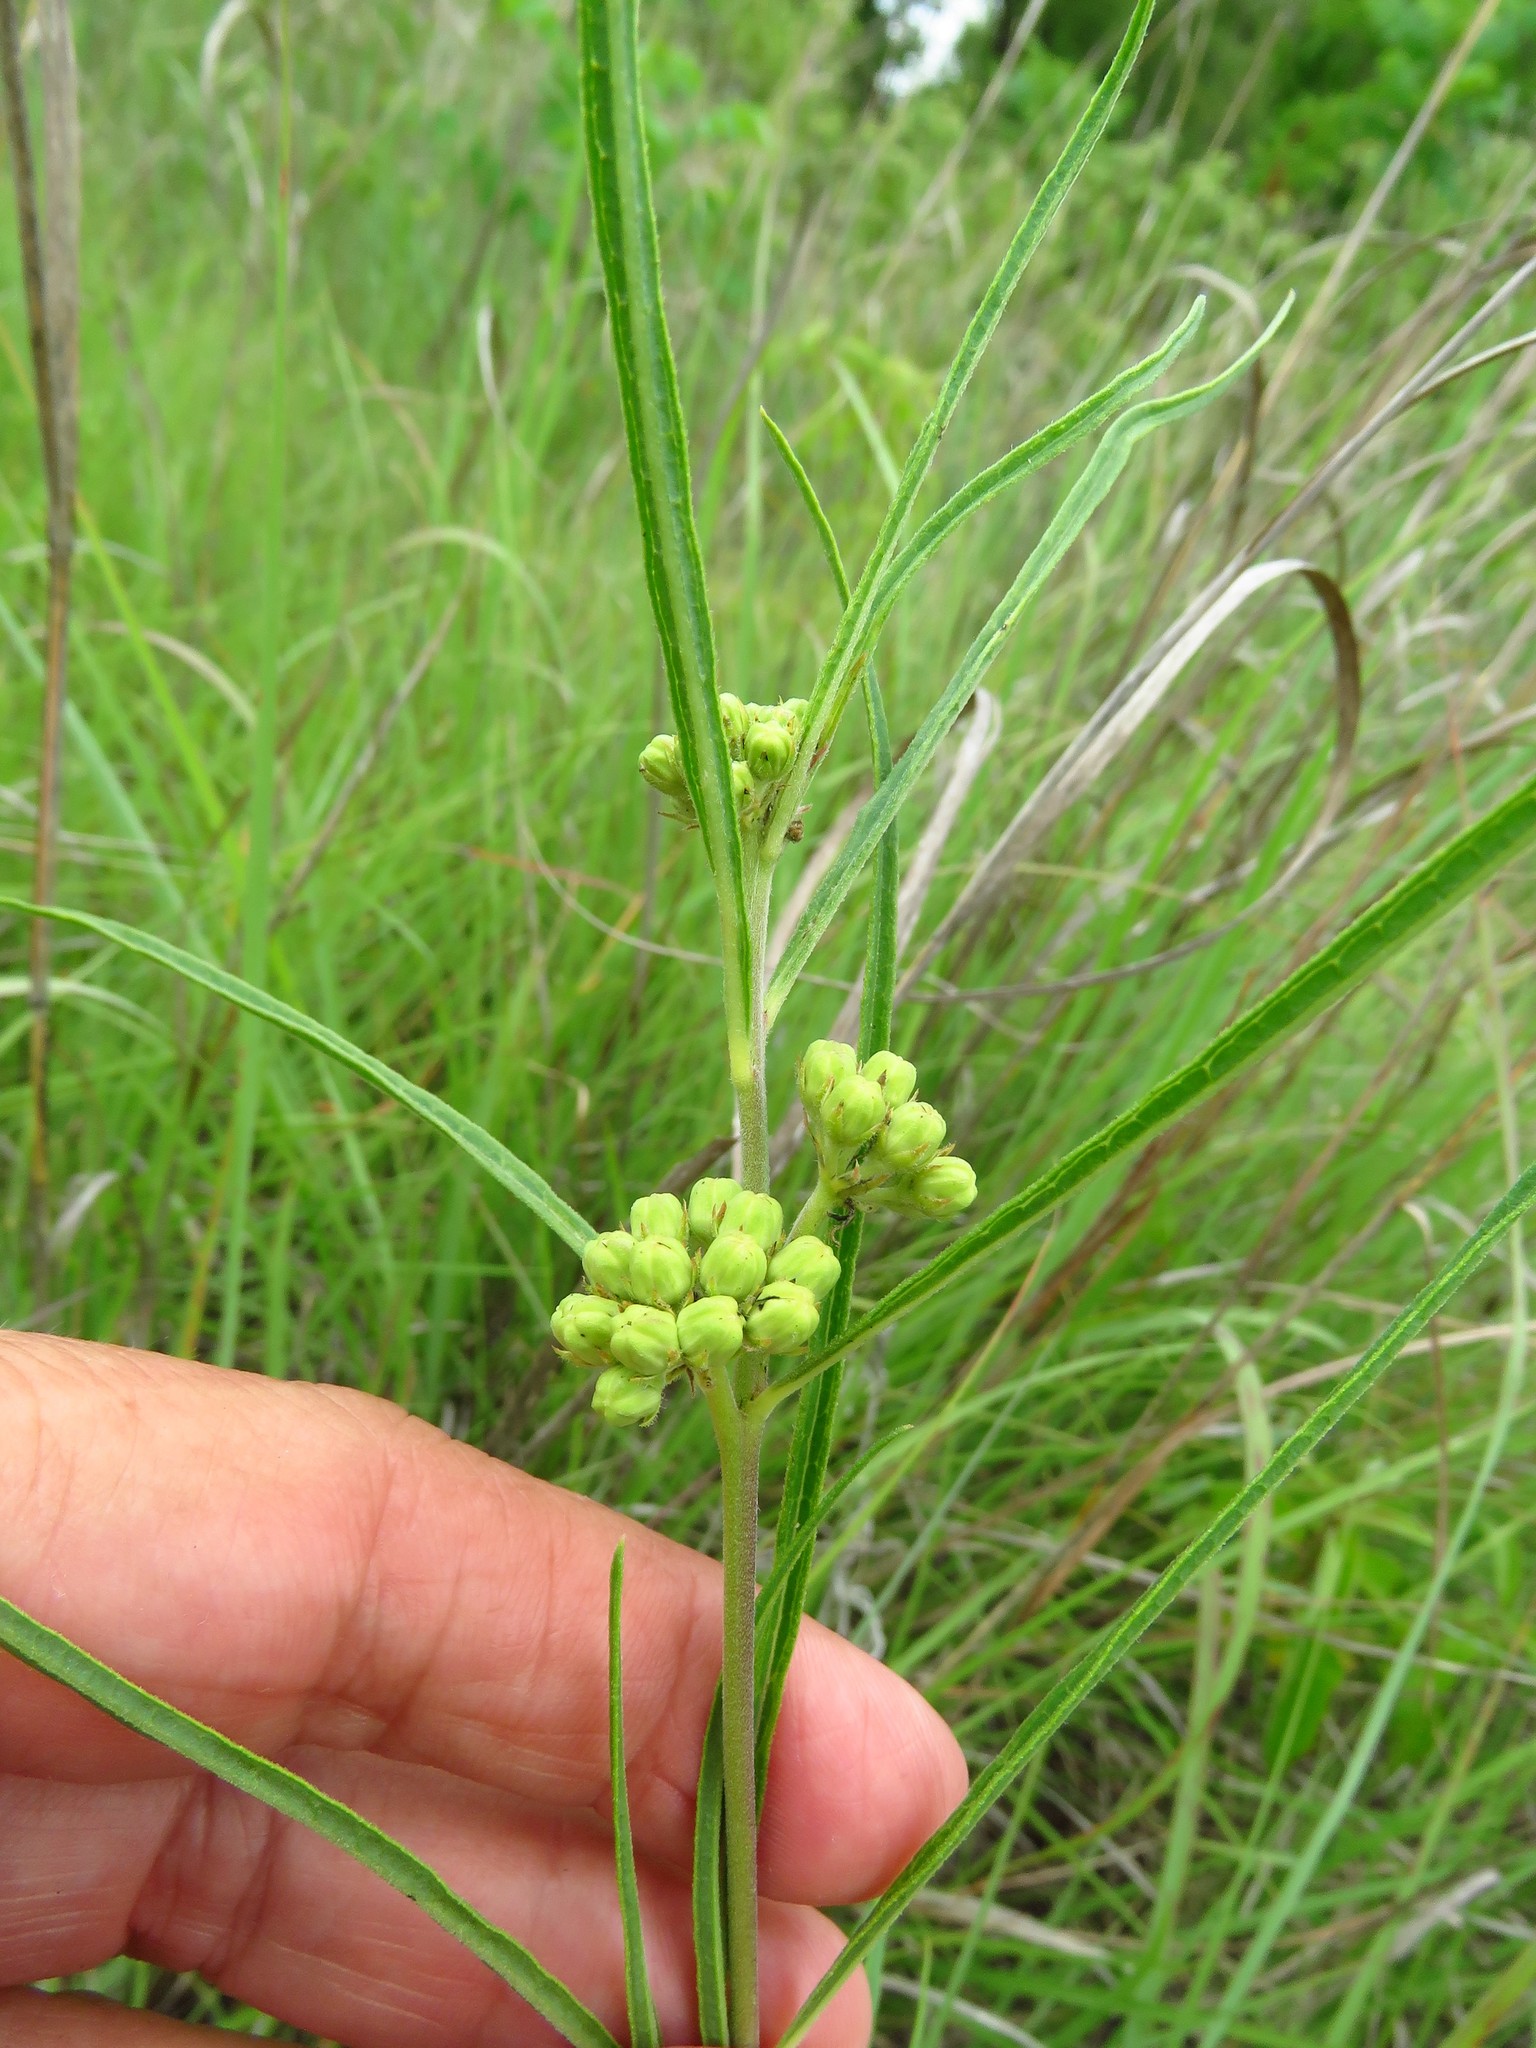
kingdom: Plantae
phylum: Tracheophyta
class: Magnoliopsida
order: Gentianales
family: Apocynaceae
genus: Asclepias
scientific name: Asclepias stenophylla
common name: Narrow-leaf milkweed
